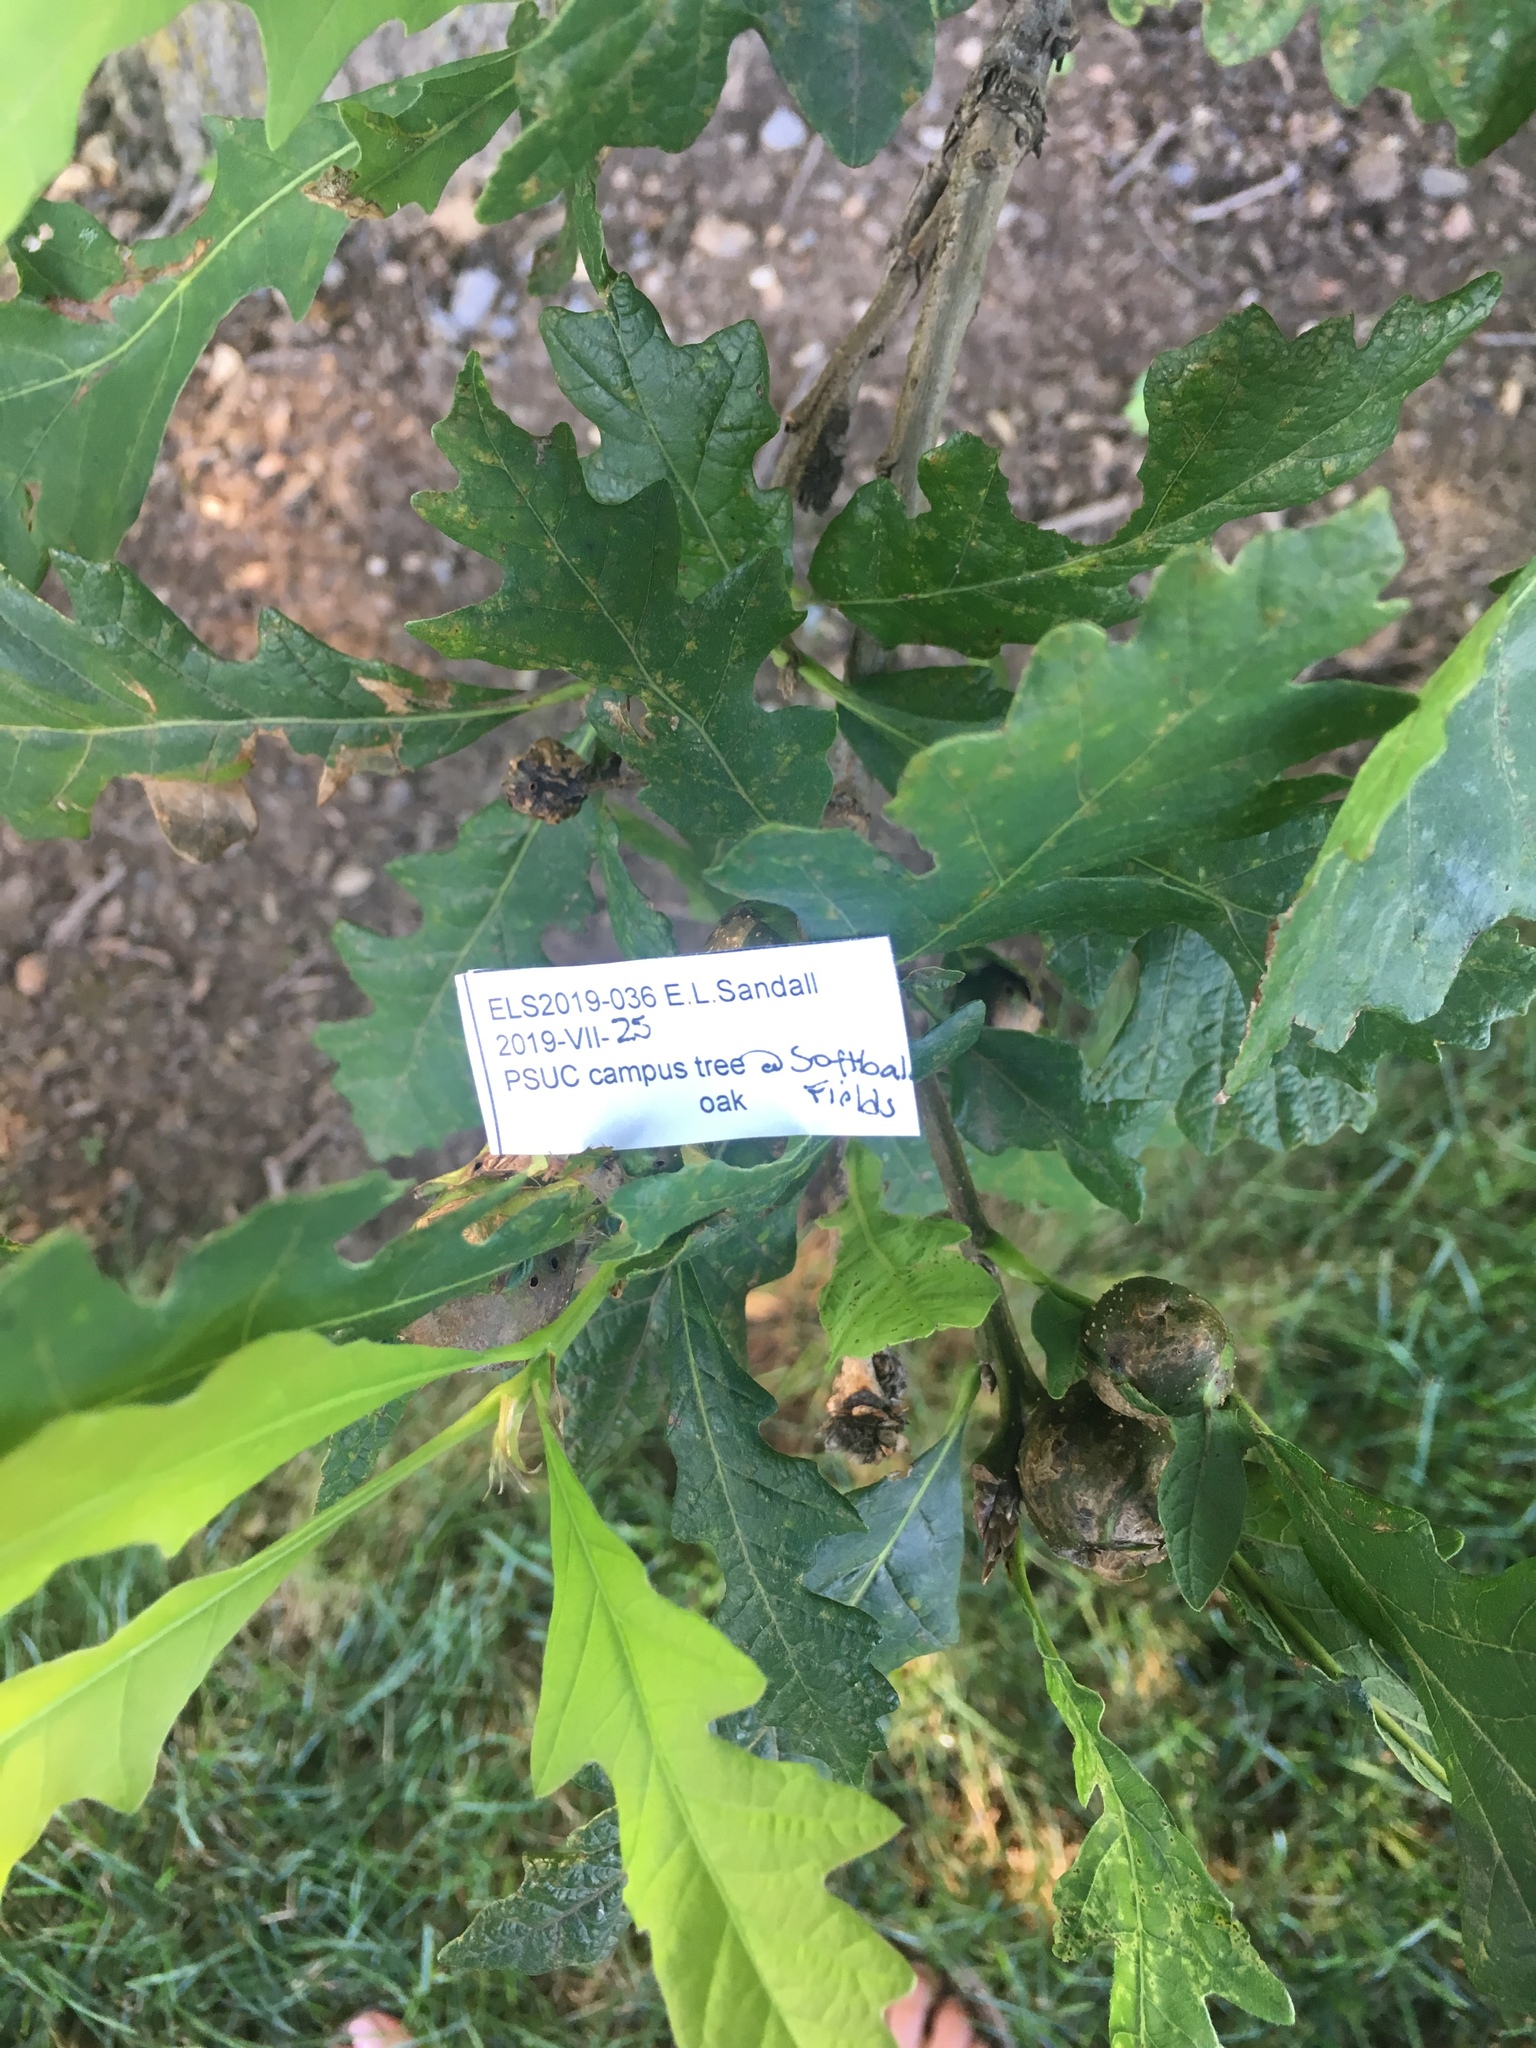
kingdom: Animalia
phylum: Arthropoda
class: Insecta
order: Hymenoptera
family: Cynipidae
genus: Andricus
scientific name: Andricus
